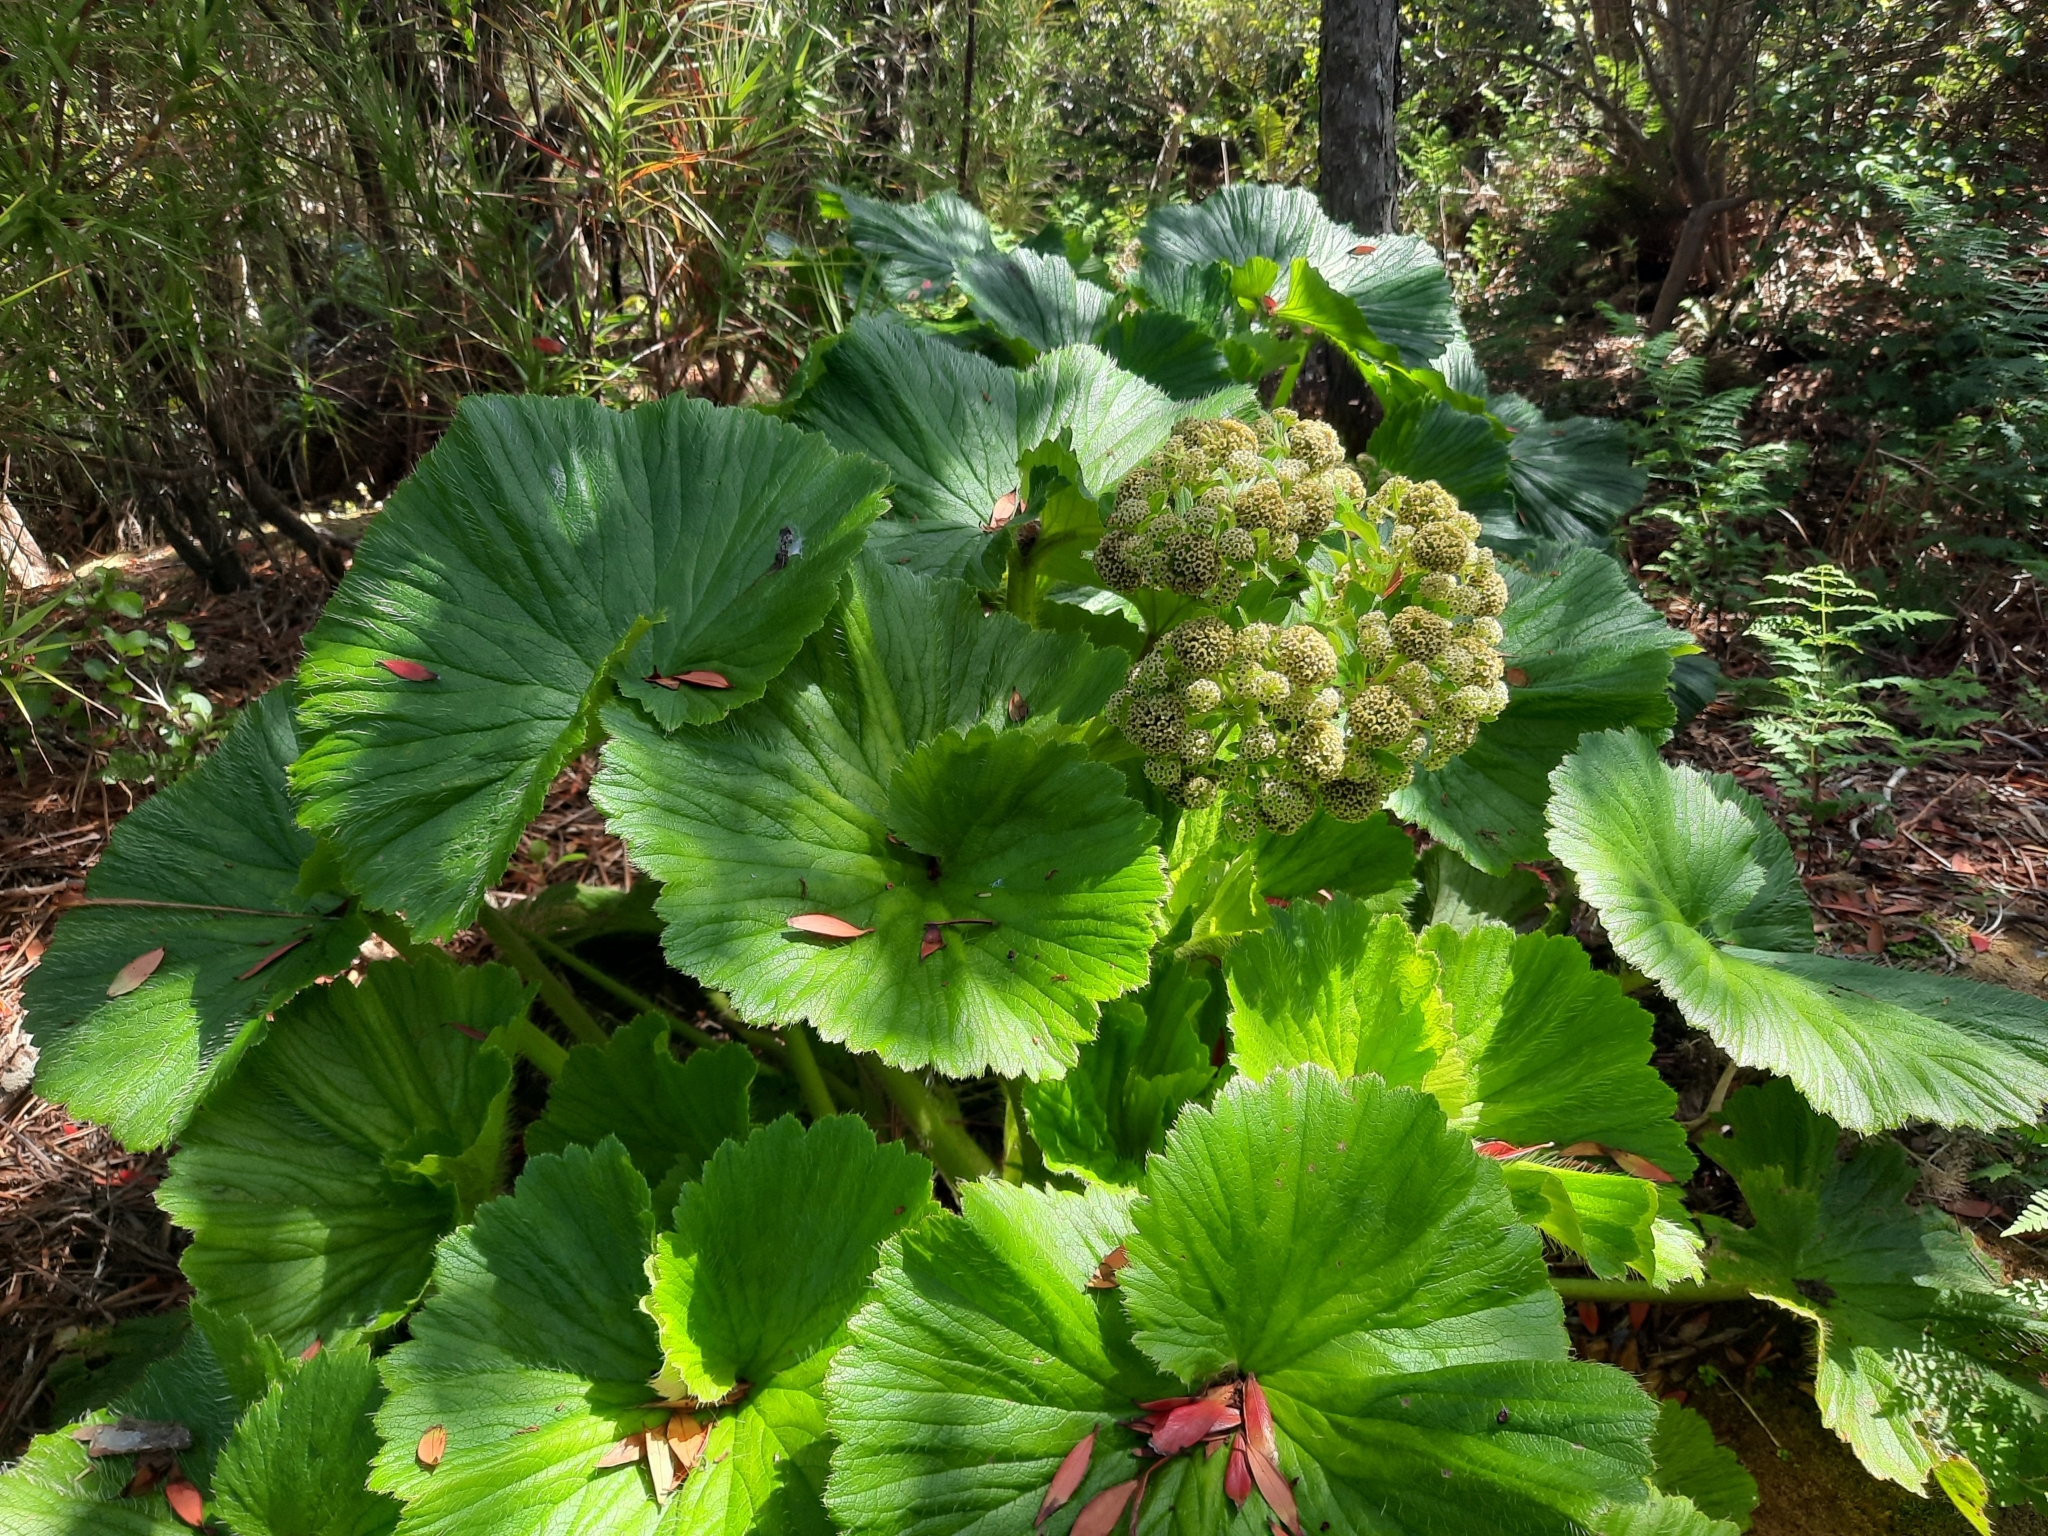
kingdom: Plantae
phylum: Tracheophyta
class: Magnoliopsida
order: Apiales
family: Apiaceae
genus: Azorella
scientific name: Azorella polaris
